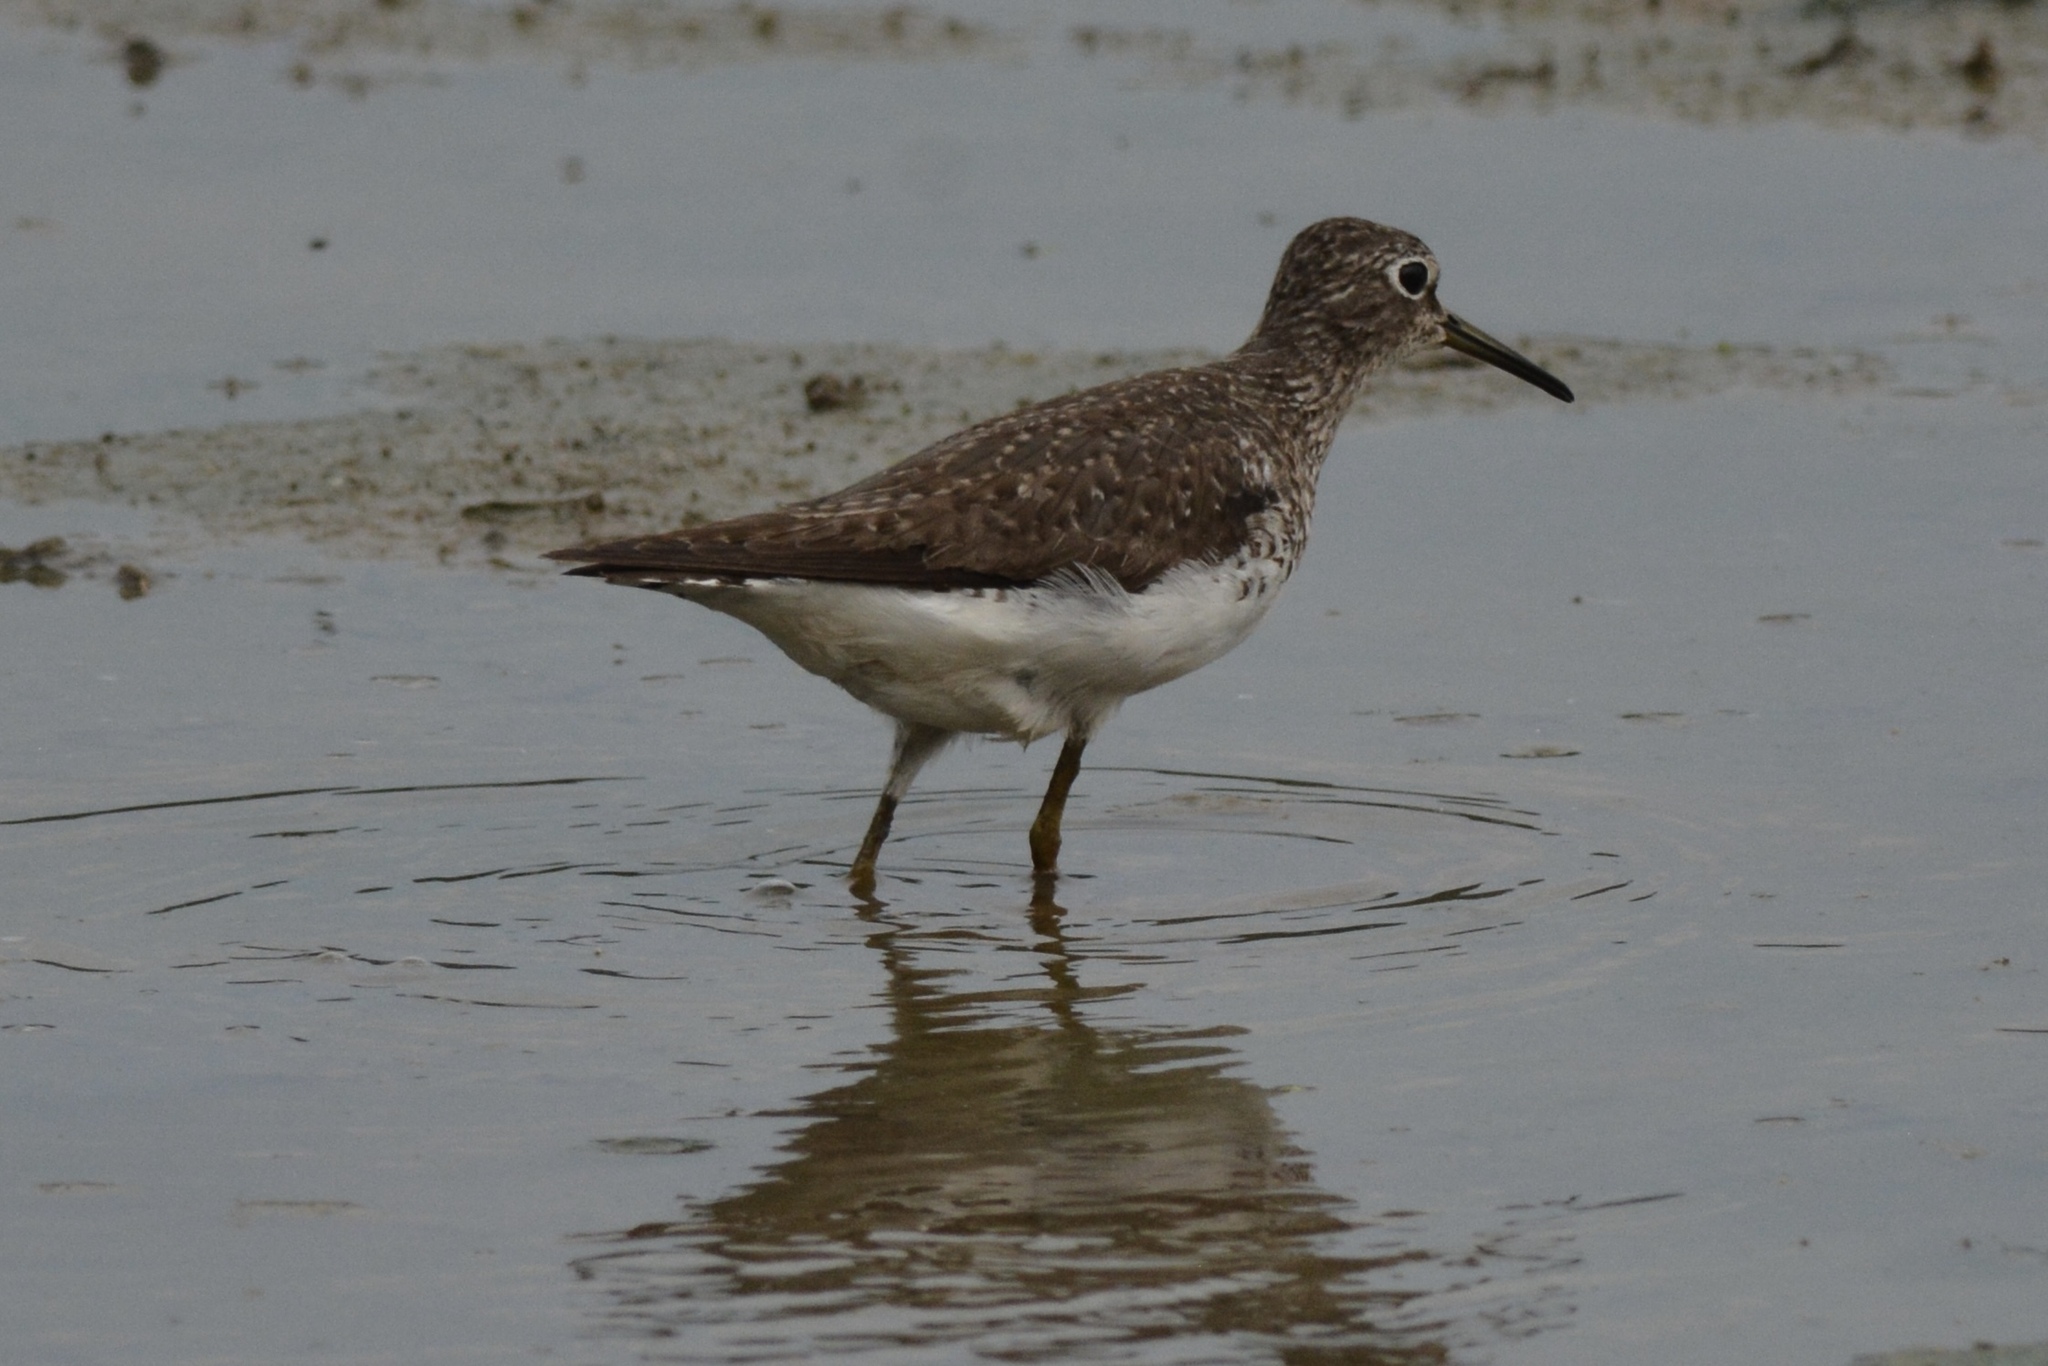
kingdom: Animalia
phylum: Chordata
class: Aves
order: Charadriiformes
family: Scolopacidae
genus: Tringa
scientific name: Tringa solitaria
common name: Solitary sandpiper
